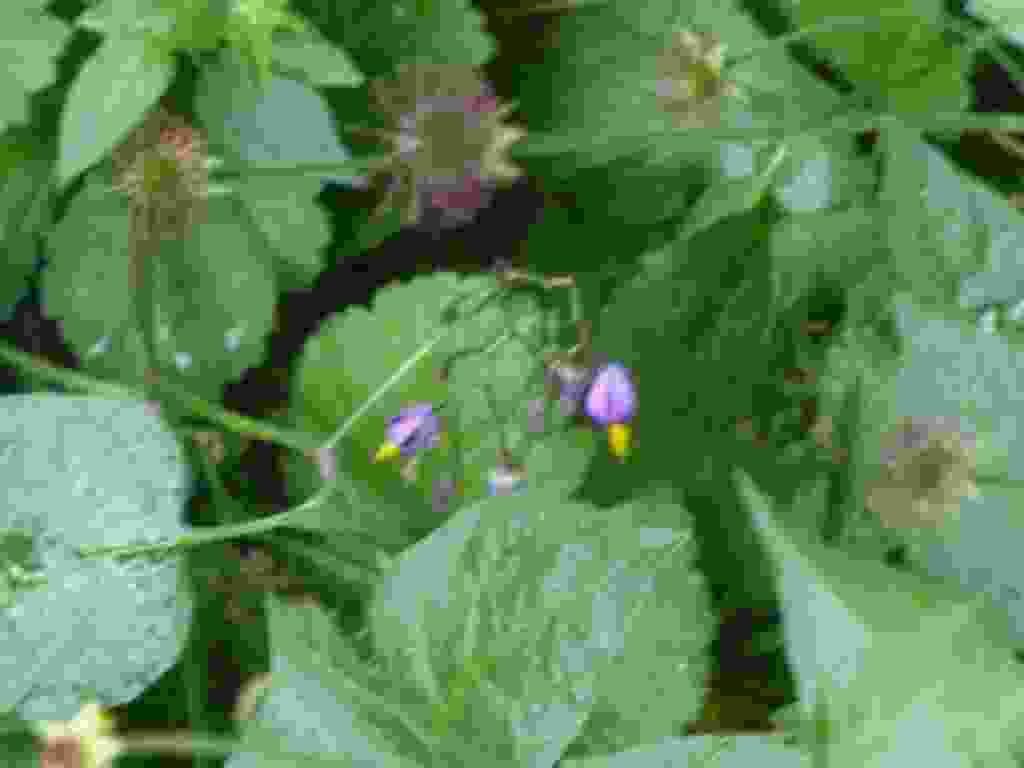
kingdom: Plantae
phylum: Tracheophyta
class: Magnoliopsida
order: Solanales
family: Solanaceae
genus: Solanum
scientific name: Solanum dulcamara
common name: Climbing nightshade
